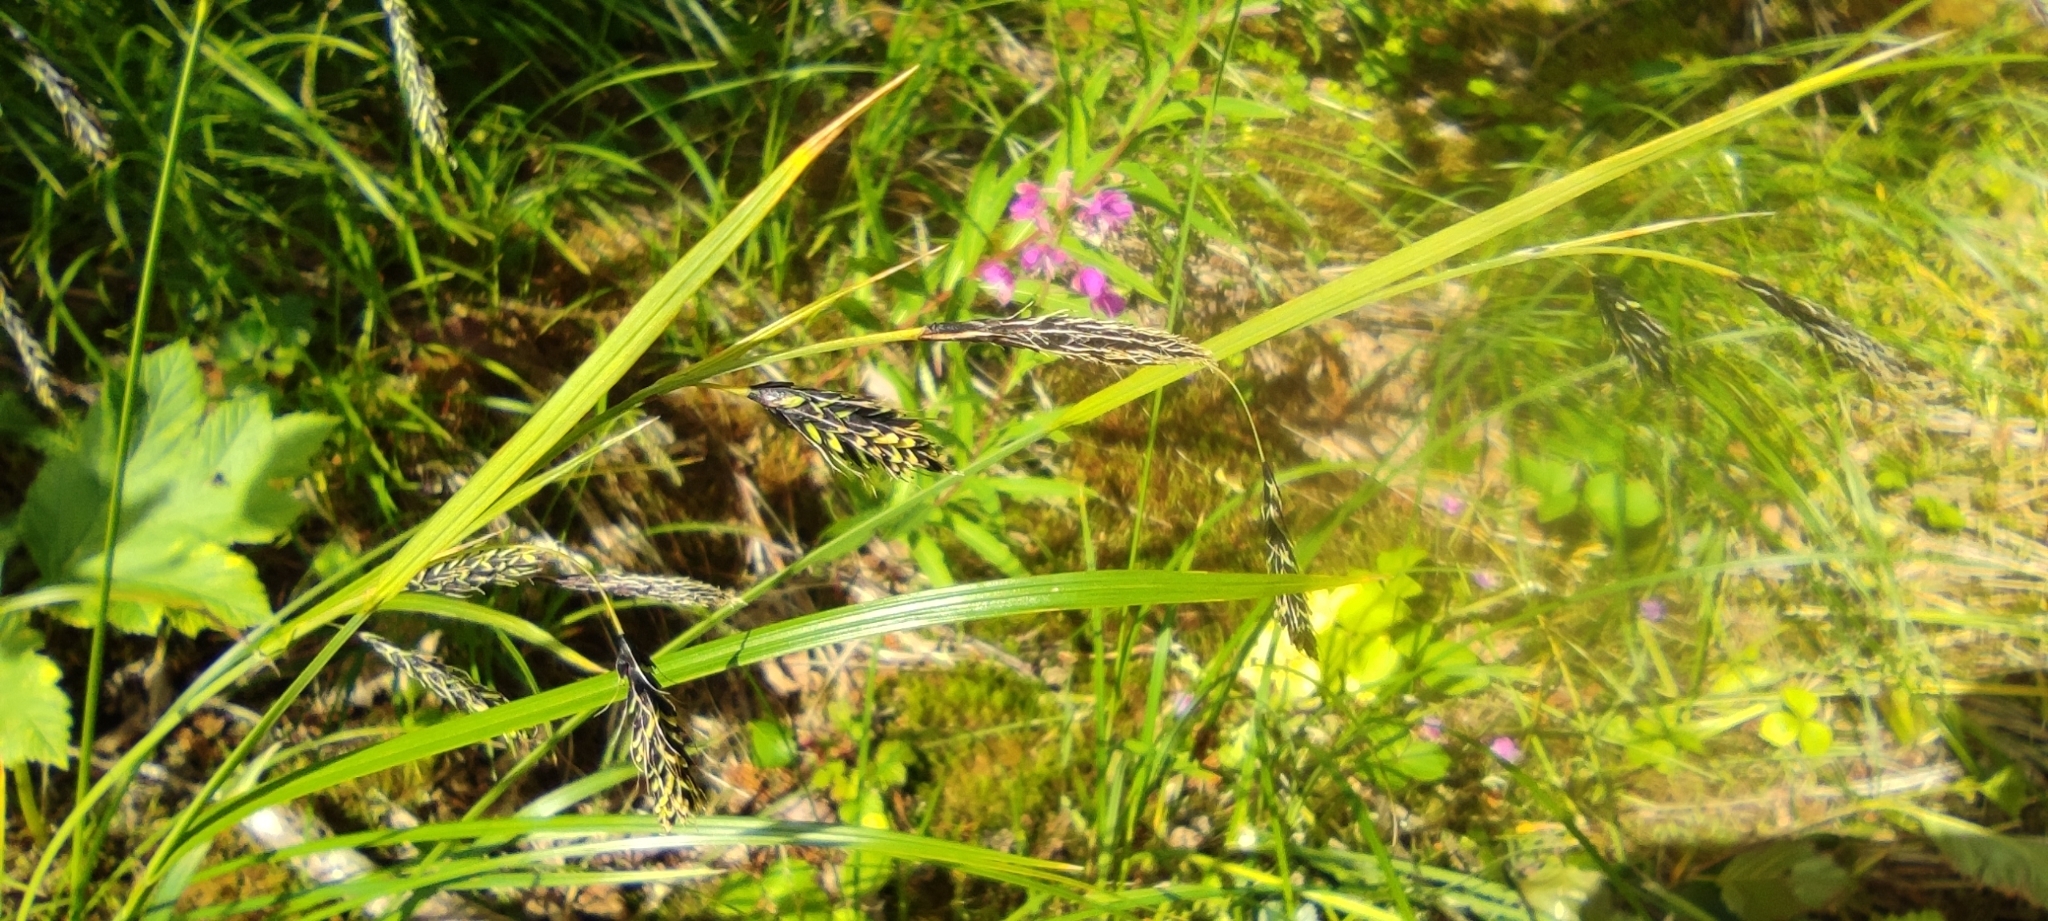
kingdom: Plantae
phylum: Tracheophyta
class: Liliopsida
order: Poales
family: Cyperaceae
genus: Carex
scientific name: Carex macrochaeta
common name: Alaska large awn sedge
